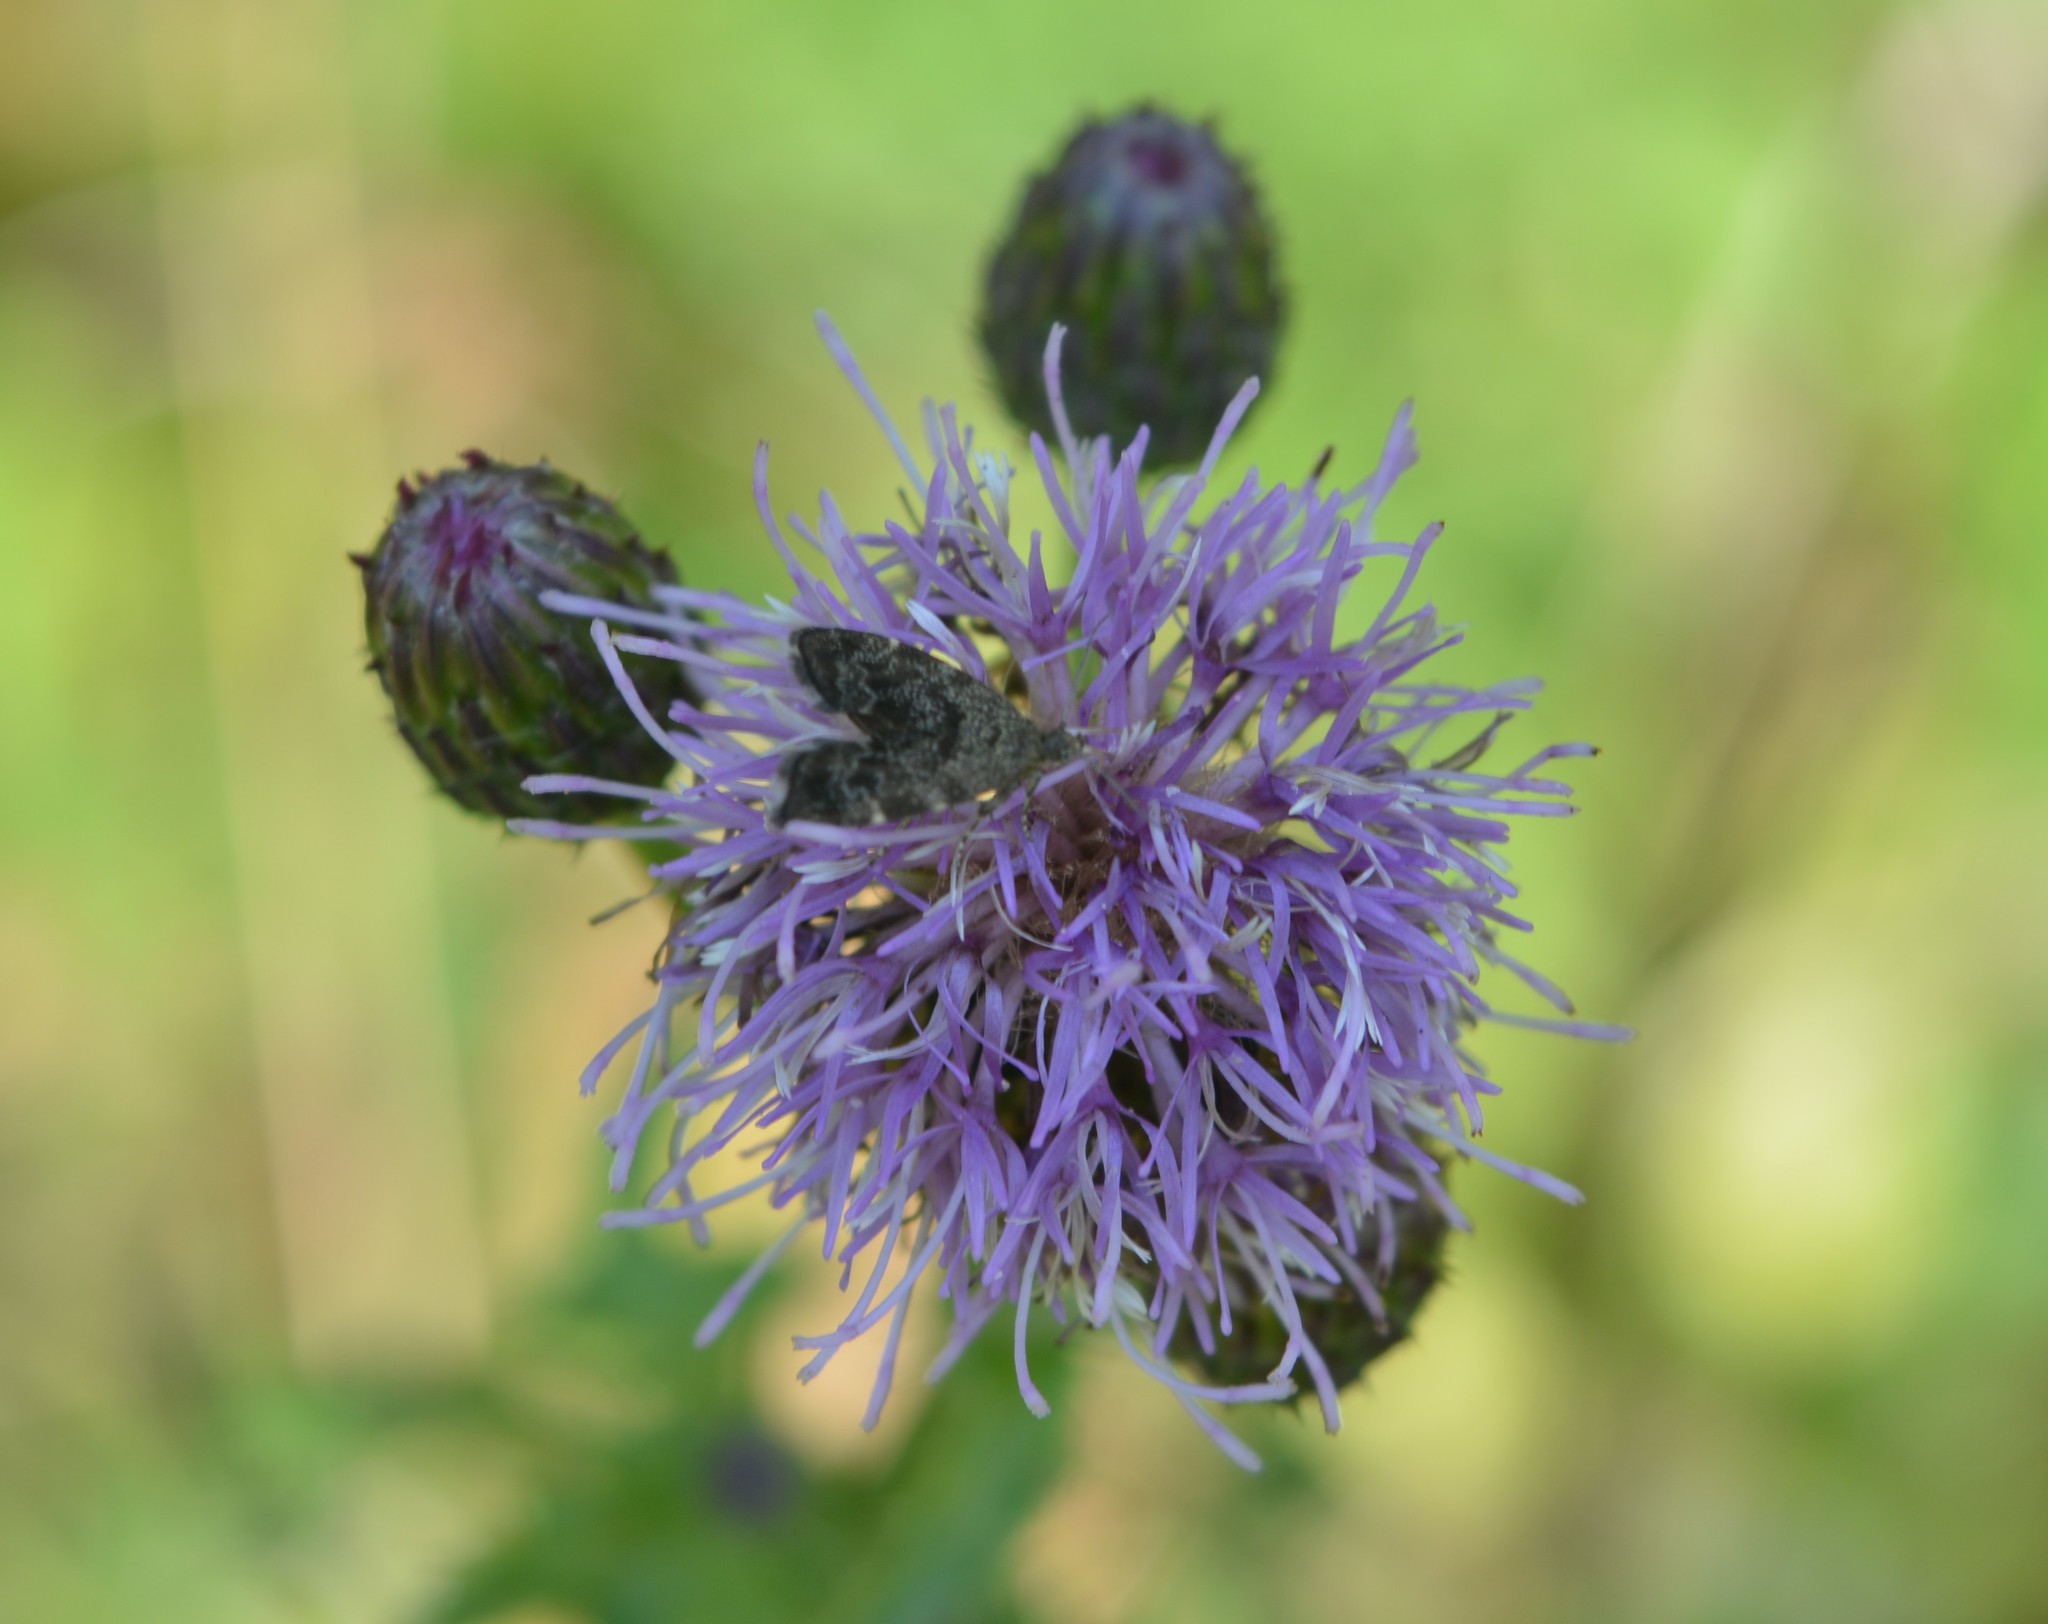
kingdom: Animalia
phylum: Arthropoda
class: Insecta
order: Lepidoptera
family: Choreutidae
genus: Anthophila
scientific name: Anthophila fabriciana
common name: Nettle-tap
